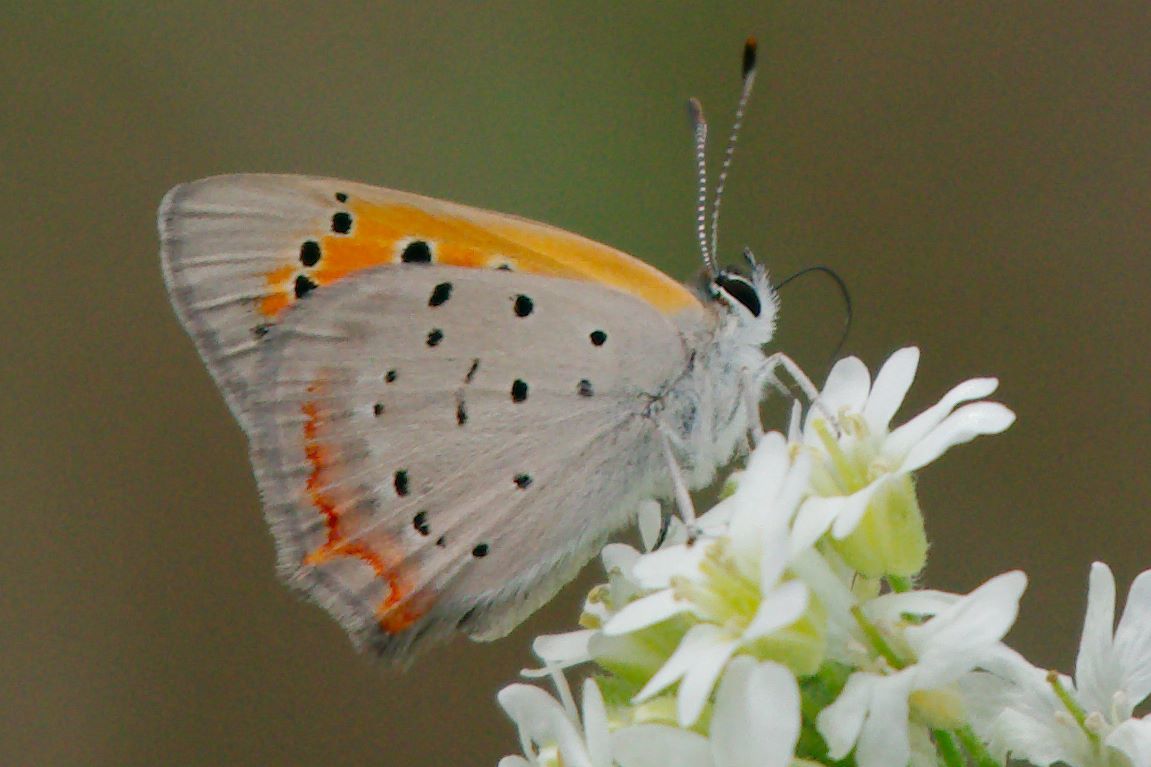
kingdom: Animalia
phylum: Arthropoda
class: Insecta
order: Lepidoptera
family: Lycaenidae
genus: Lycaena
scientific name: Lycaena hypophlaeas
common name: American copper
